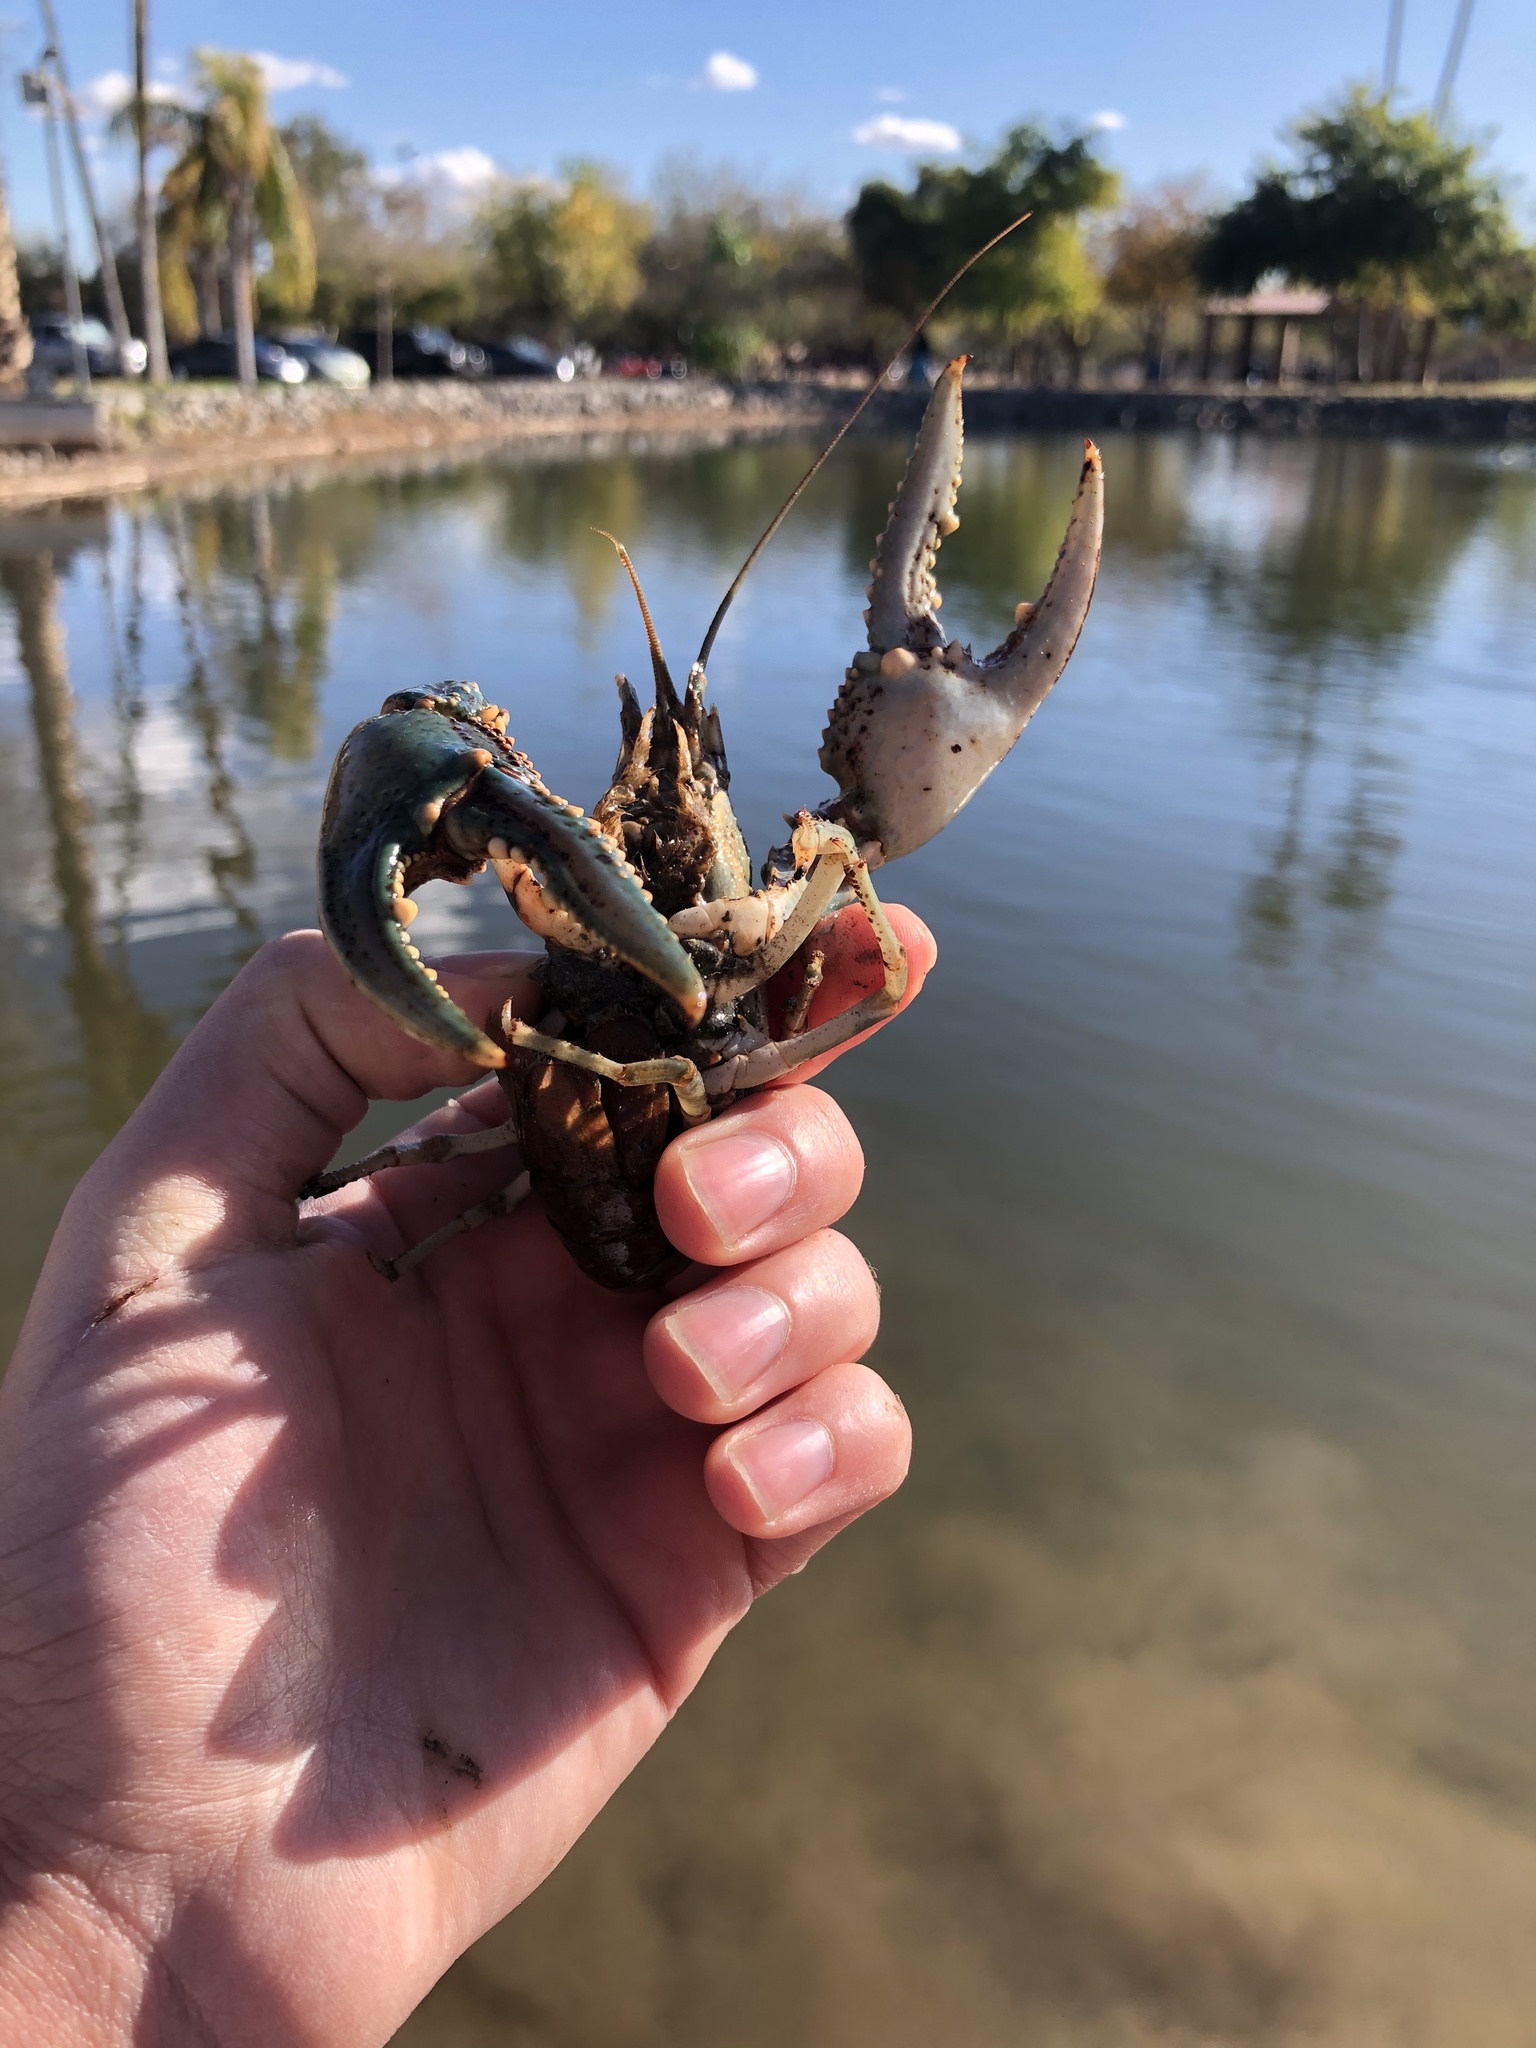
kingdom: Animalia
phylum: Arthropoda
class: Malacostraca
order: Decapoda
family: Cambaridae
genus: Faxonius
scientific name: Faxonius virilis
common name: Virile crayfish
